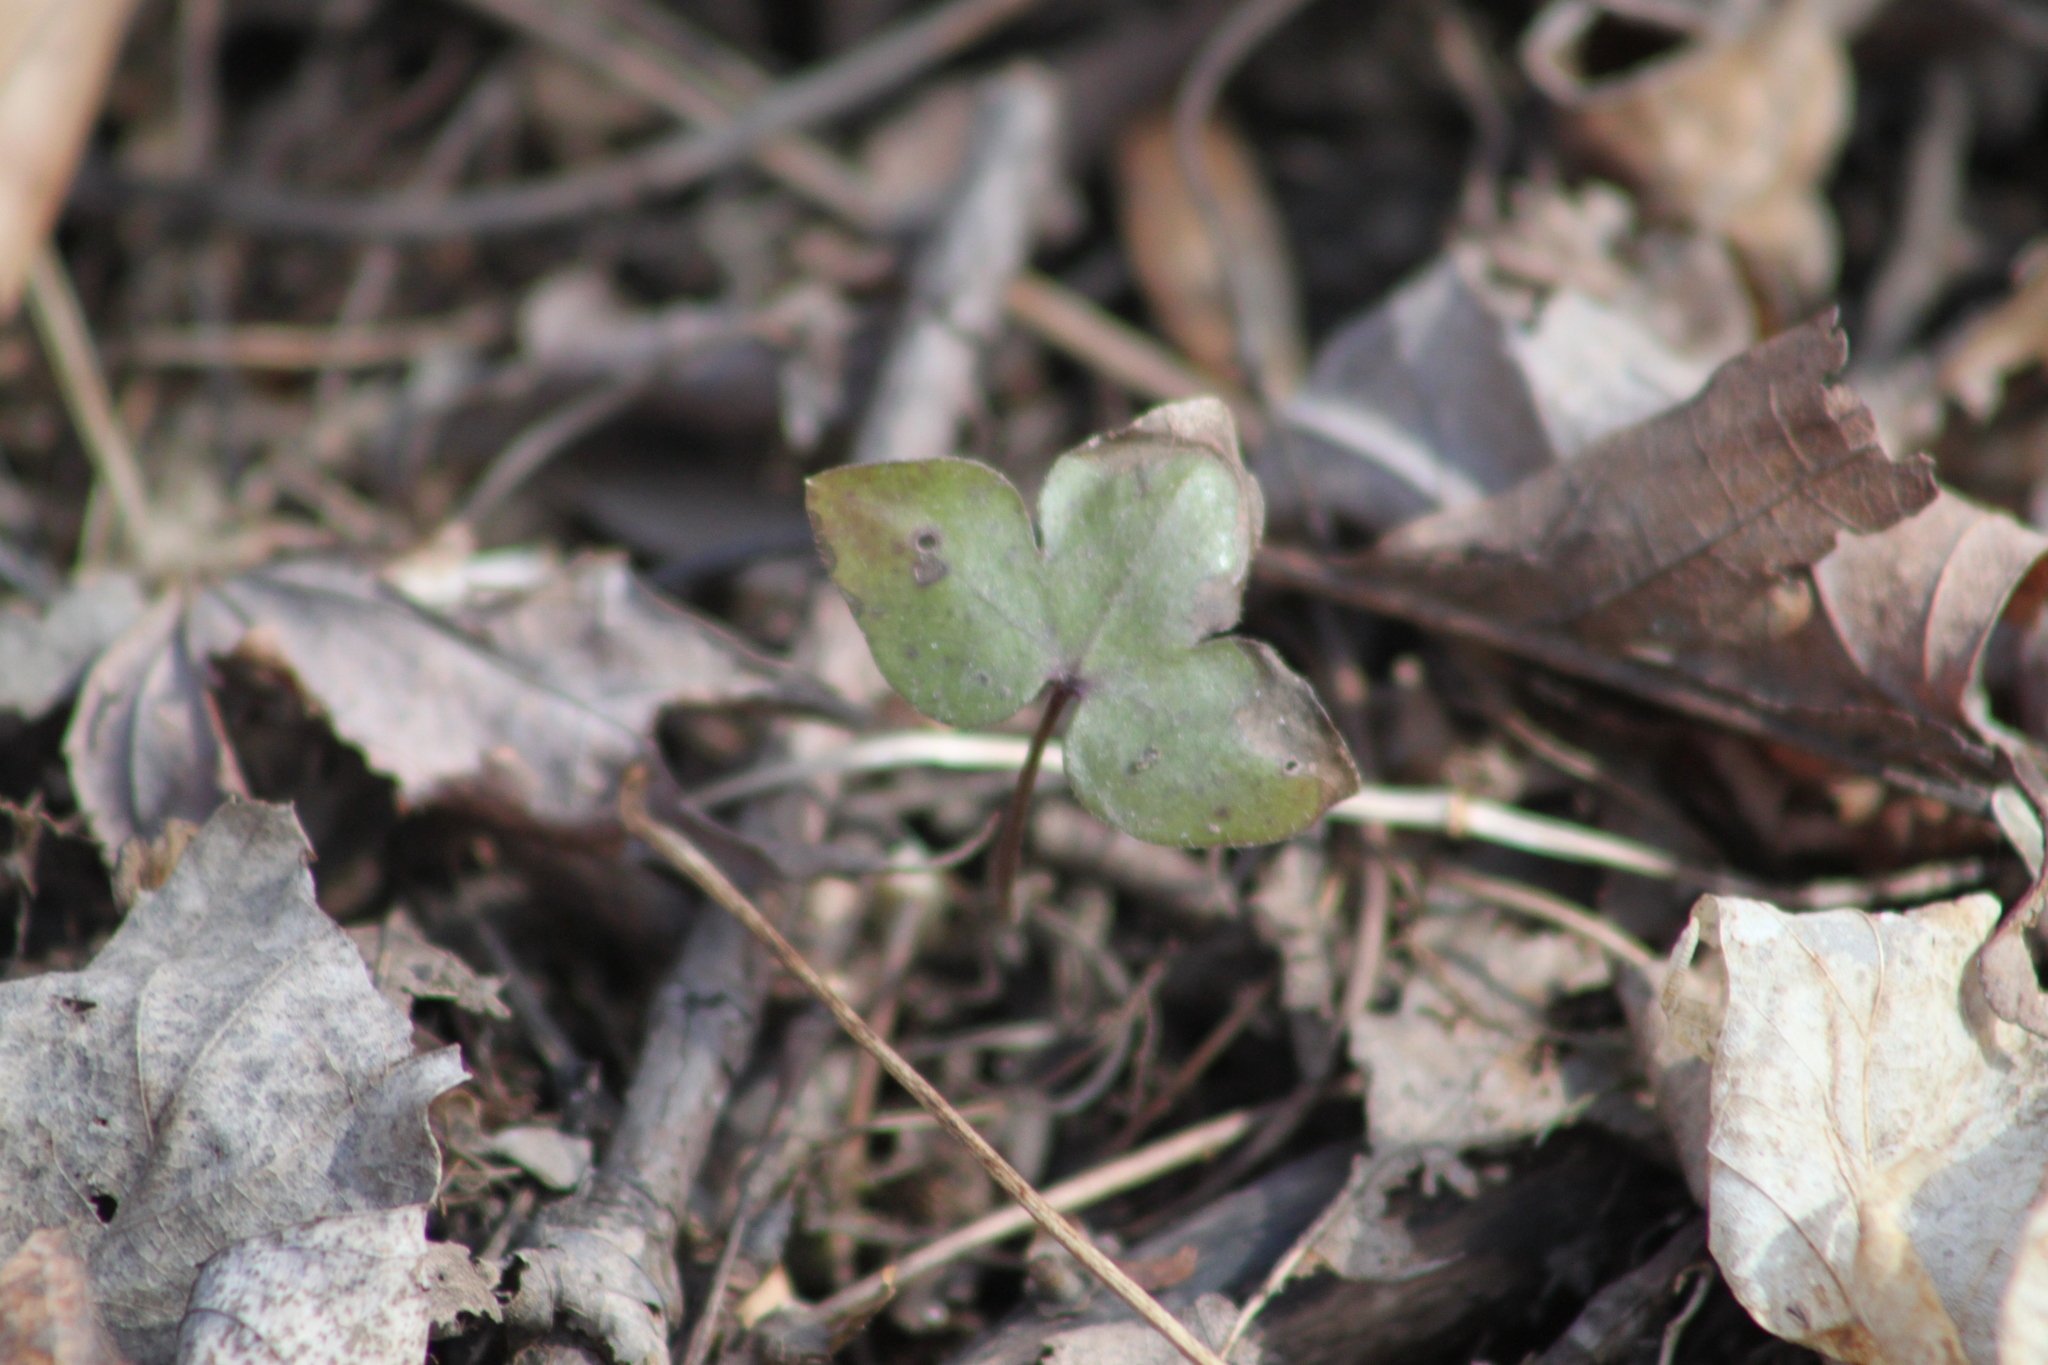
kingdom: Plantae
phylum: Tracheophyta
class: Magnoliopsida
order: Ranunculales
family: Ranunculaceae
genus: Hepatica
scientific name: Hepatica acutiloba
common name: Sharp-lobed hepatica
